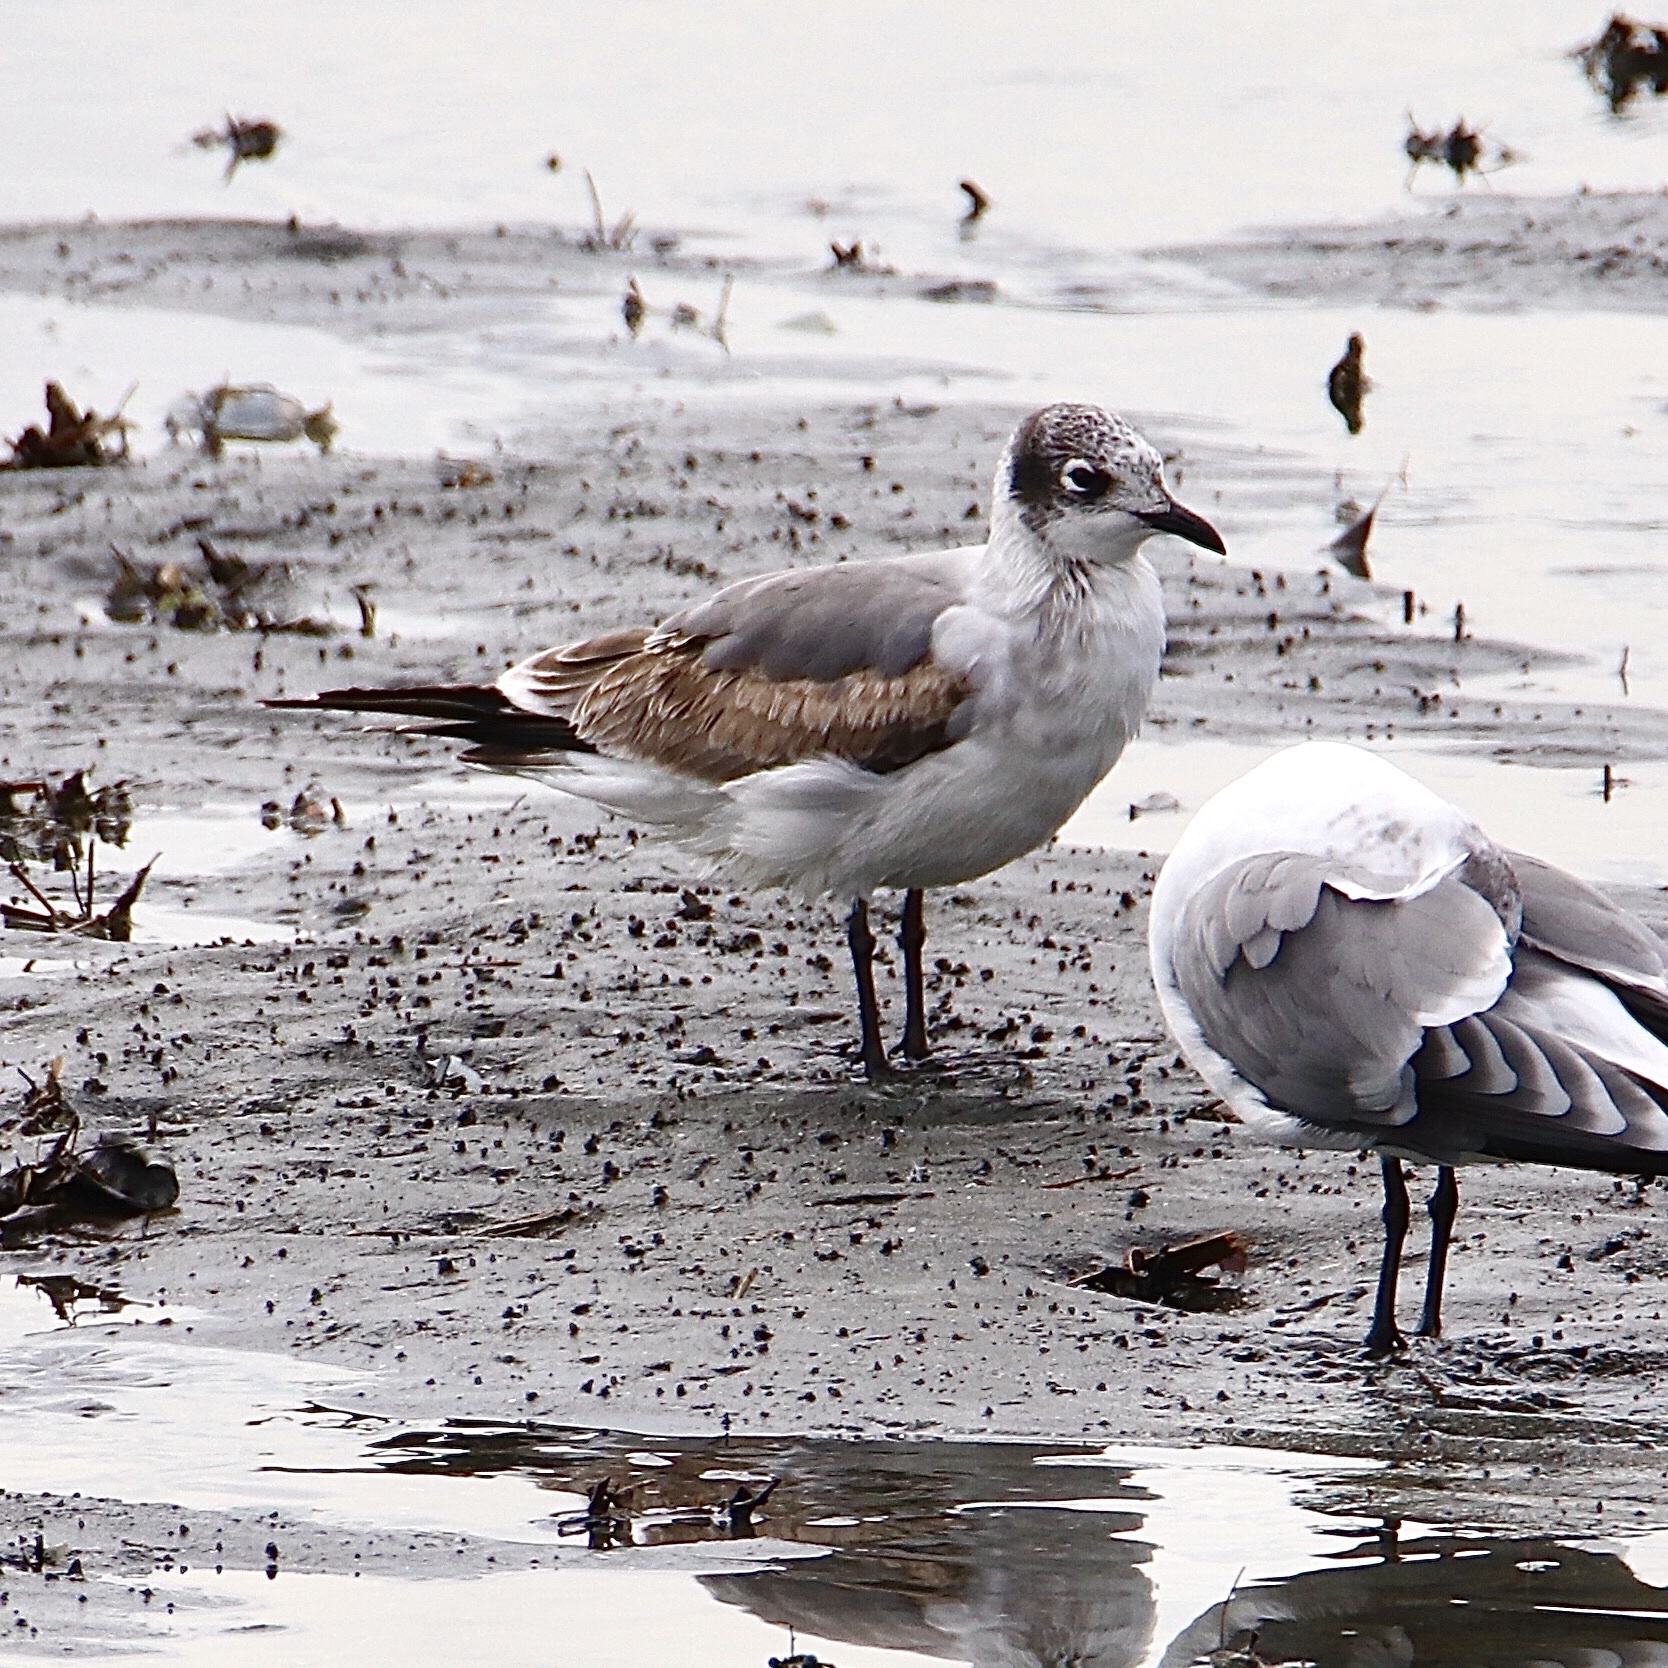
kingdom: Animalia
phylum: Chordata
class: Aves
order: Charadriiformes
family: Laridae
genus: Leucophaeus
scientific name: Leucophaeus pipixcan
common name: Franklin's gull
